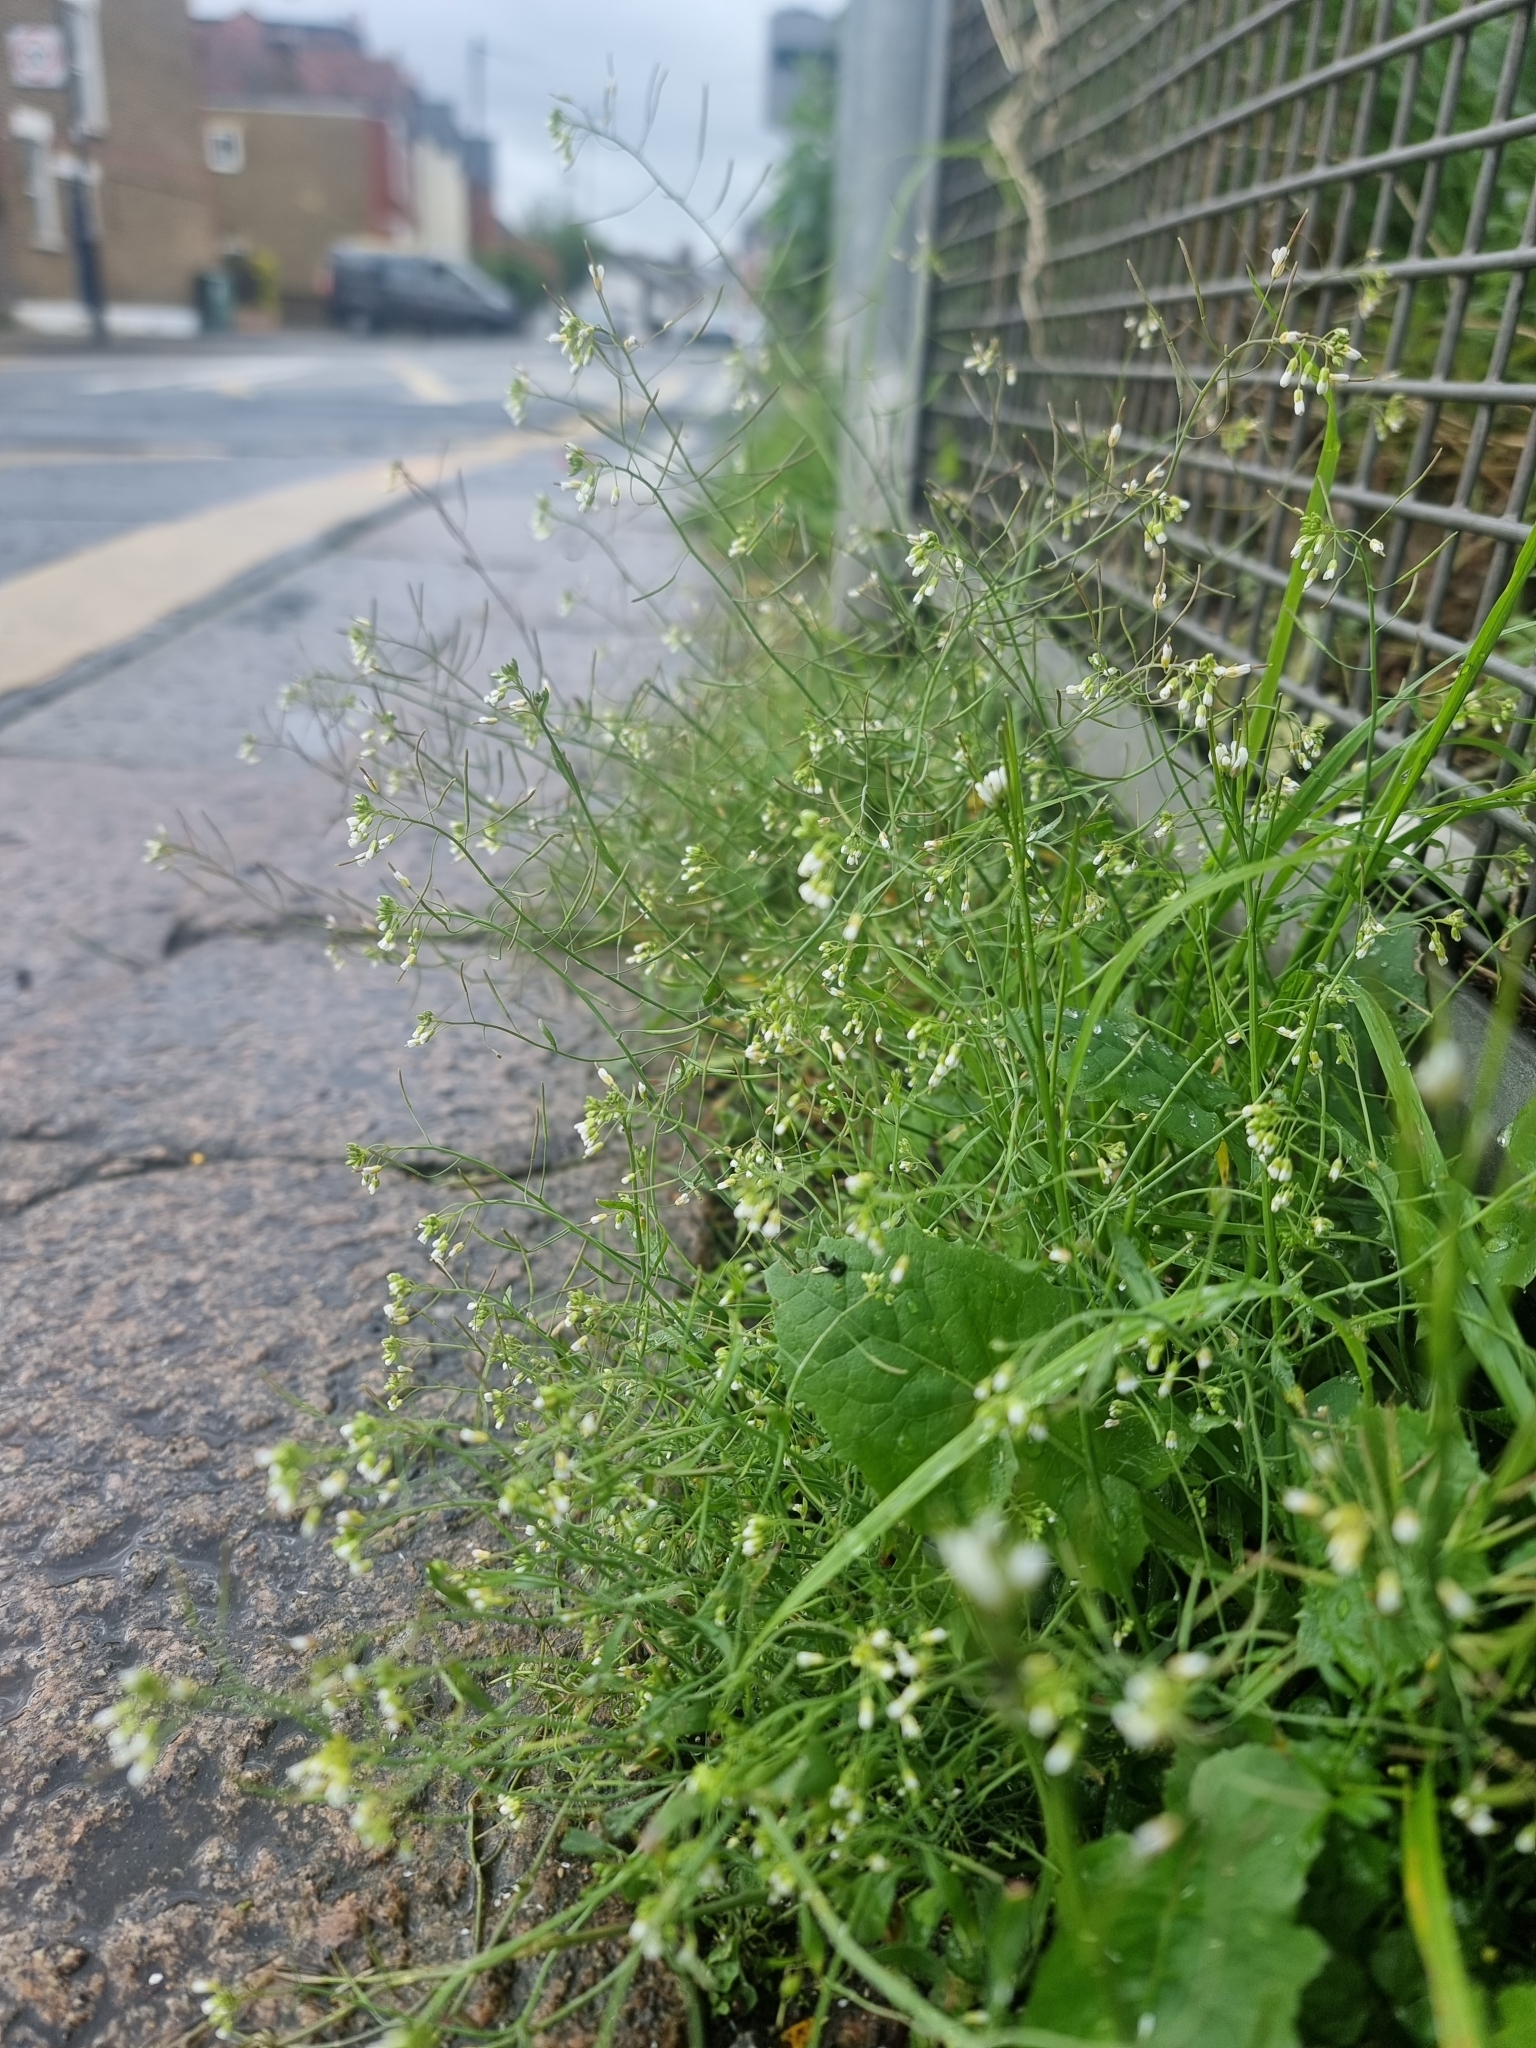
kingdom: Plantae
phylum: Tracheophyta
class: Magnoliopsida
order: Brassicales
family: Brassicaceae
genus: Arabidopsis
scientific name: Arabidopsis thaliana
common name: Thale cress
